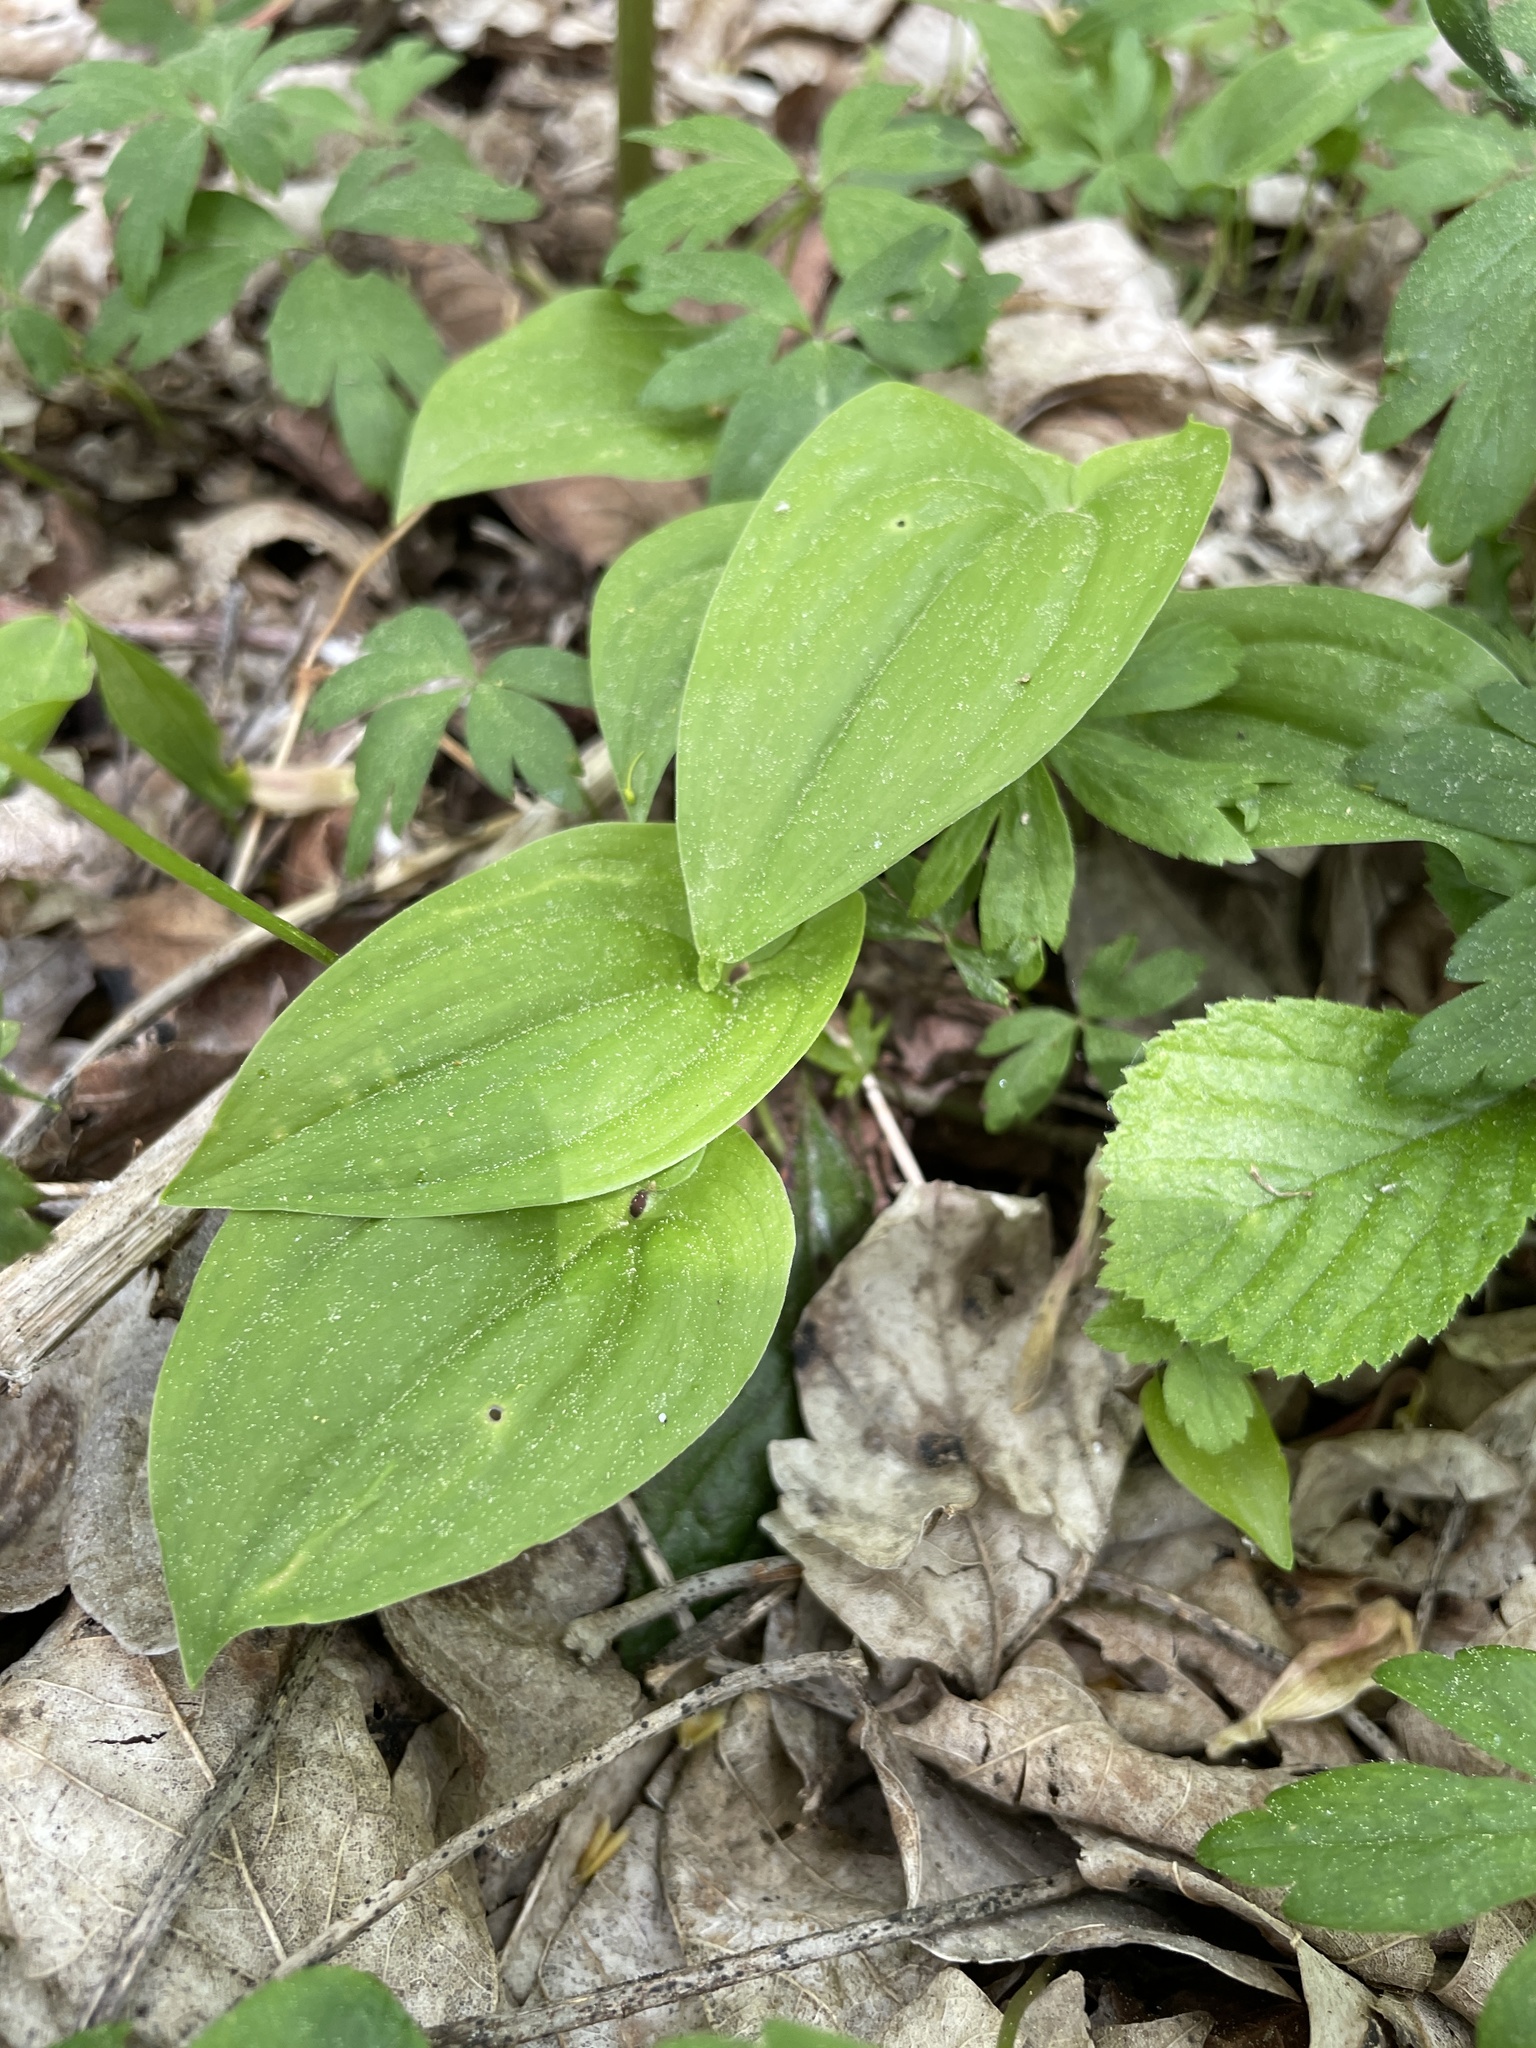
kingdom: Plantae
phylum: Tracheophyta
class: Liliopsida
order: Asparagales
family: Asparagaceae
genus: Maianthemum
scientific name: Maianthemum bifolium
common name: May lily
